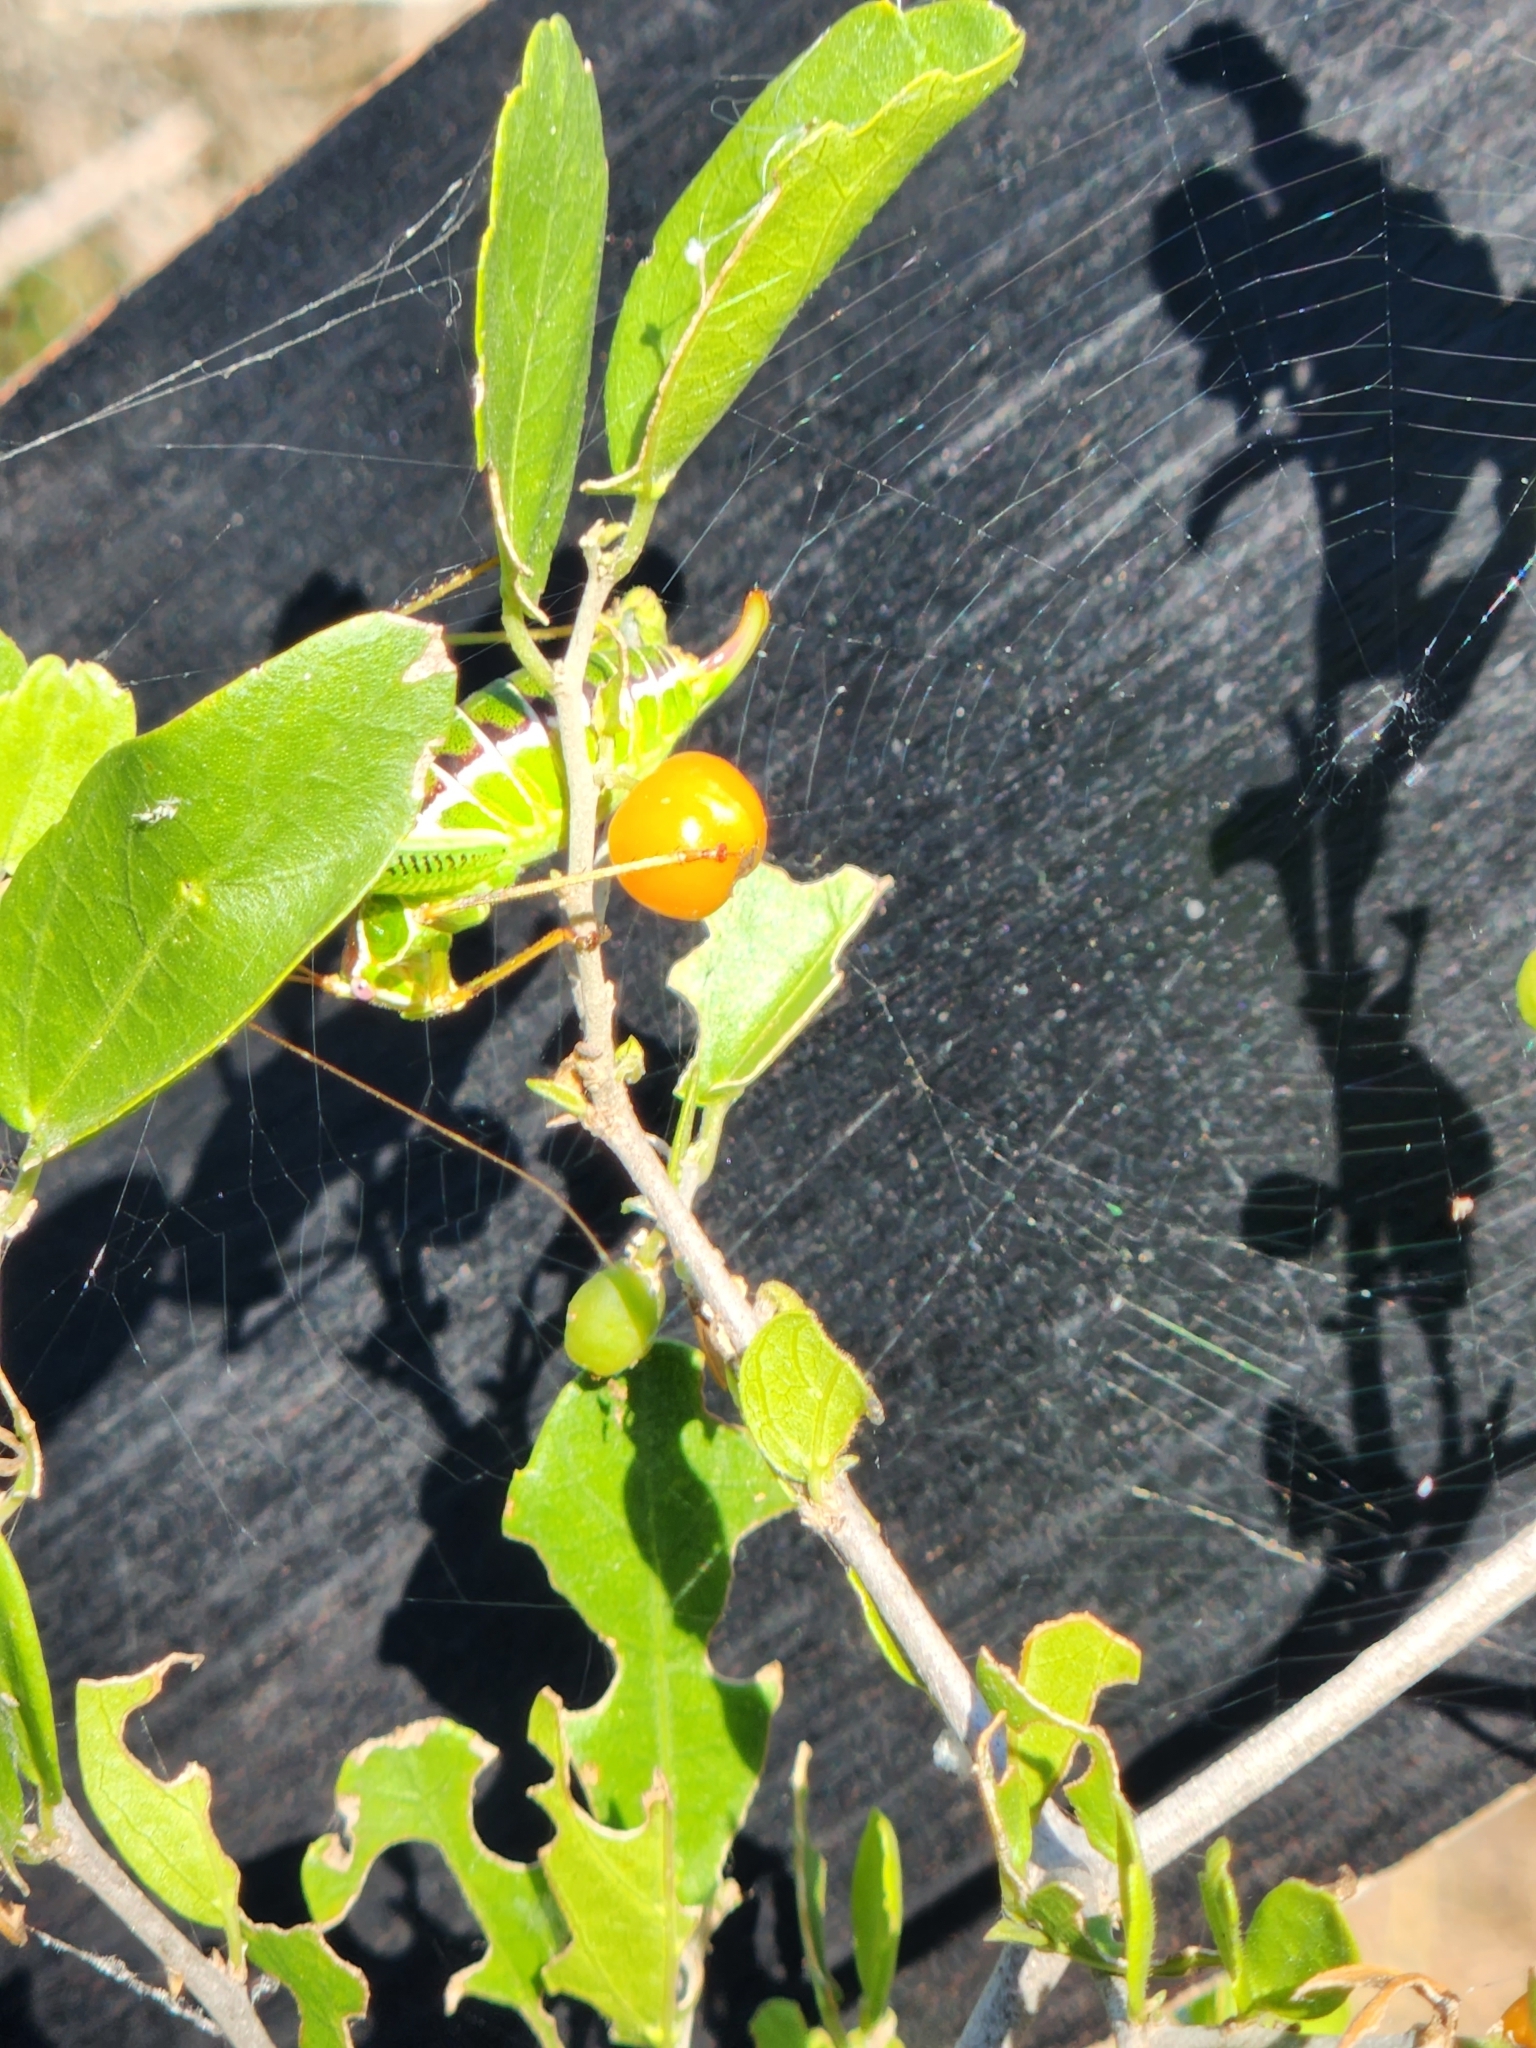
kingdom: Plantae
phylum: Tracheophyta
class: Magnoliopsida
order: Rosales
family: Cannabaceae
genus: Celtis
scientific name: Celtis pallida
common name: Desert hackberry
